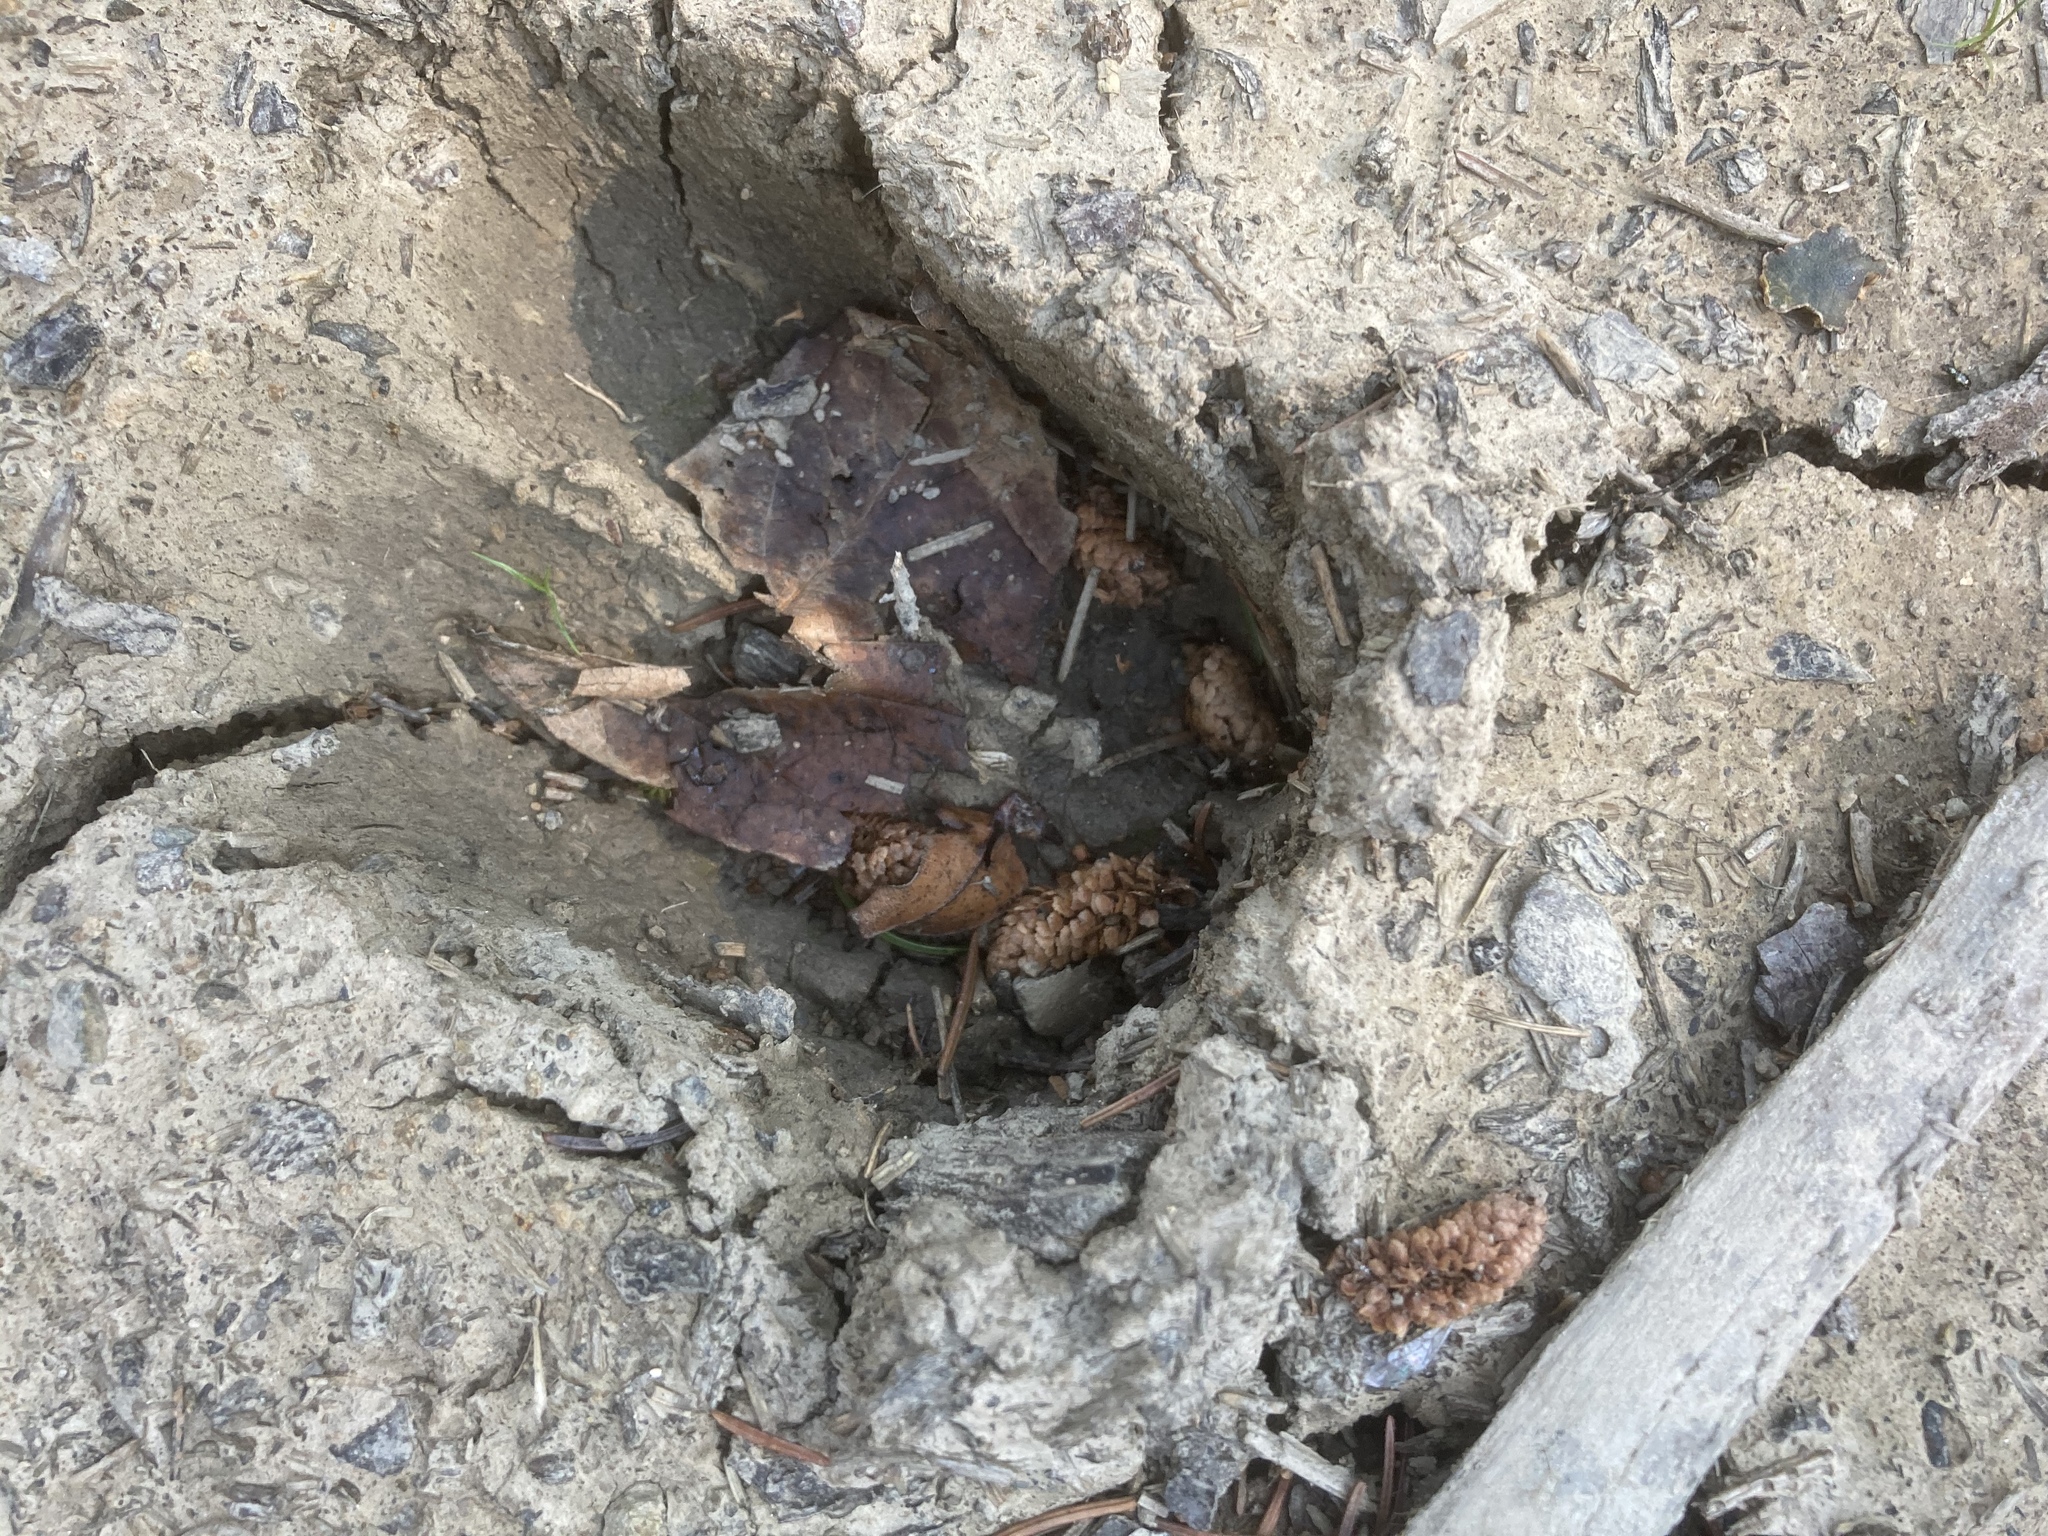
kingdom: Animalia
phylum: Chordata
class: Mammalia
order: Artiodactyla
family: Cervidae
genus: Cervus
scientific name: Cervus elaphus
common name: Red deer
